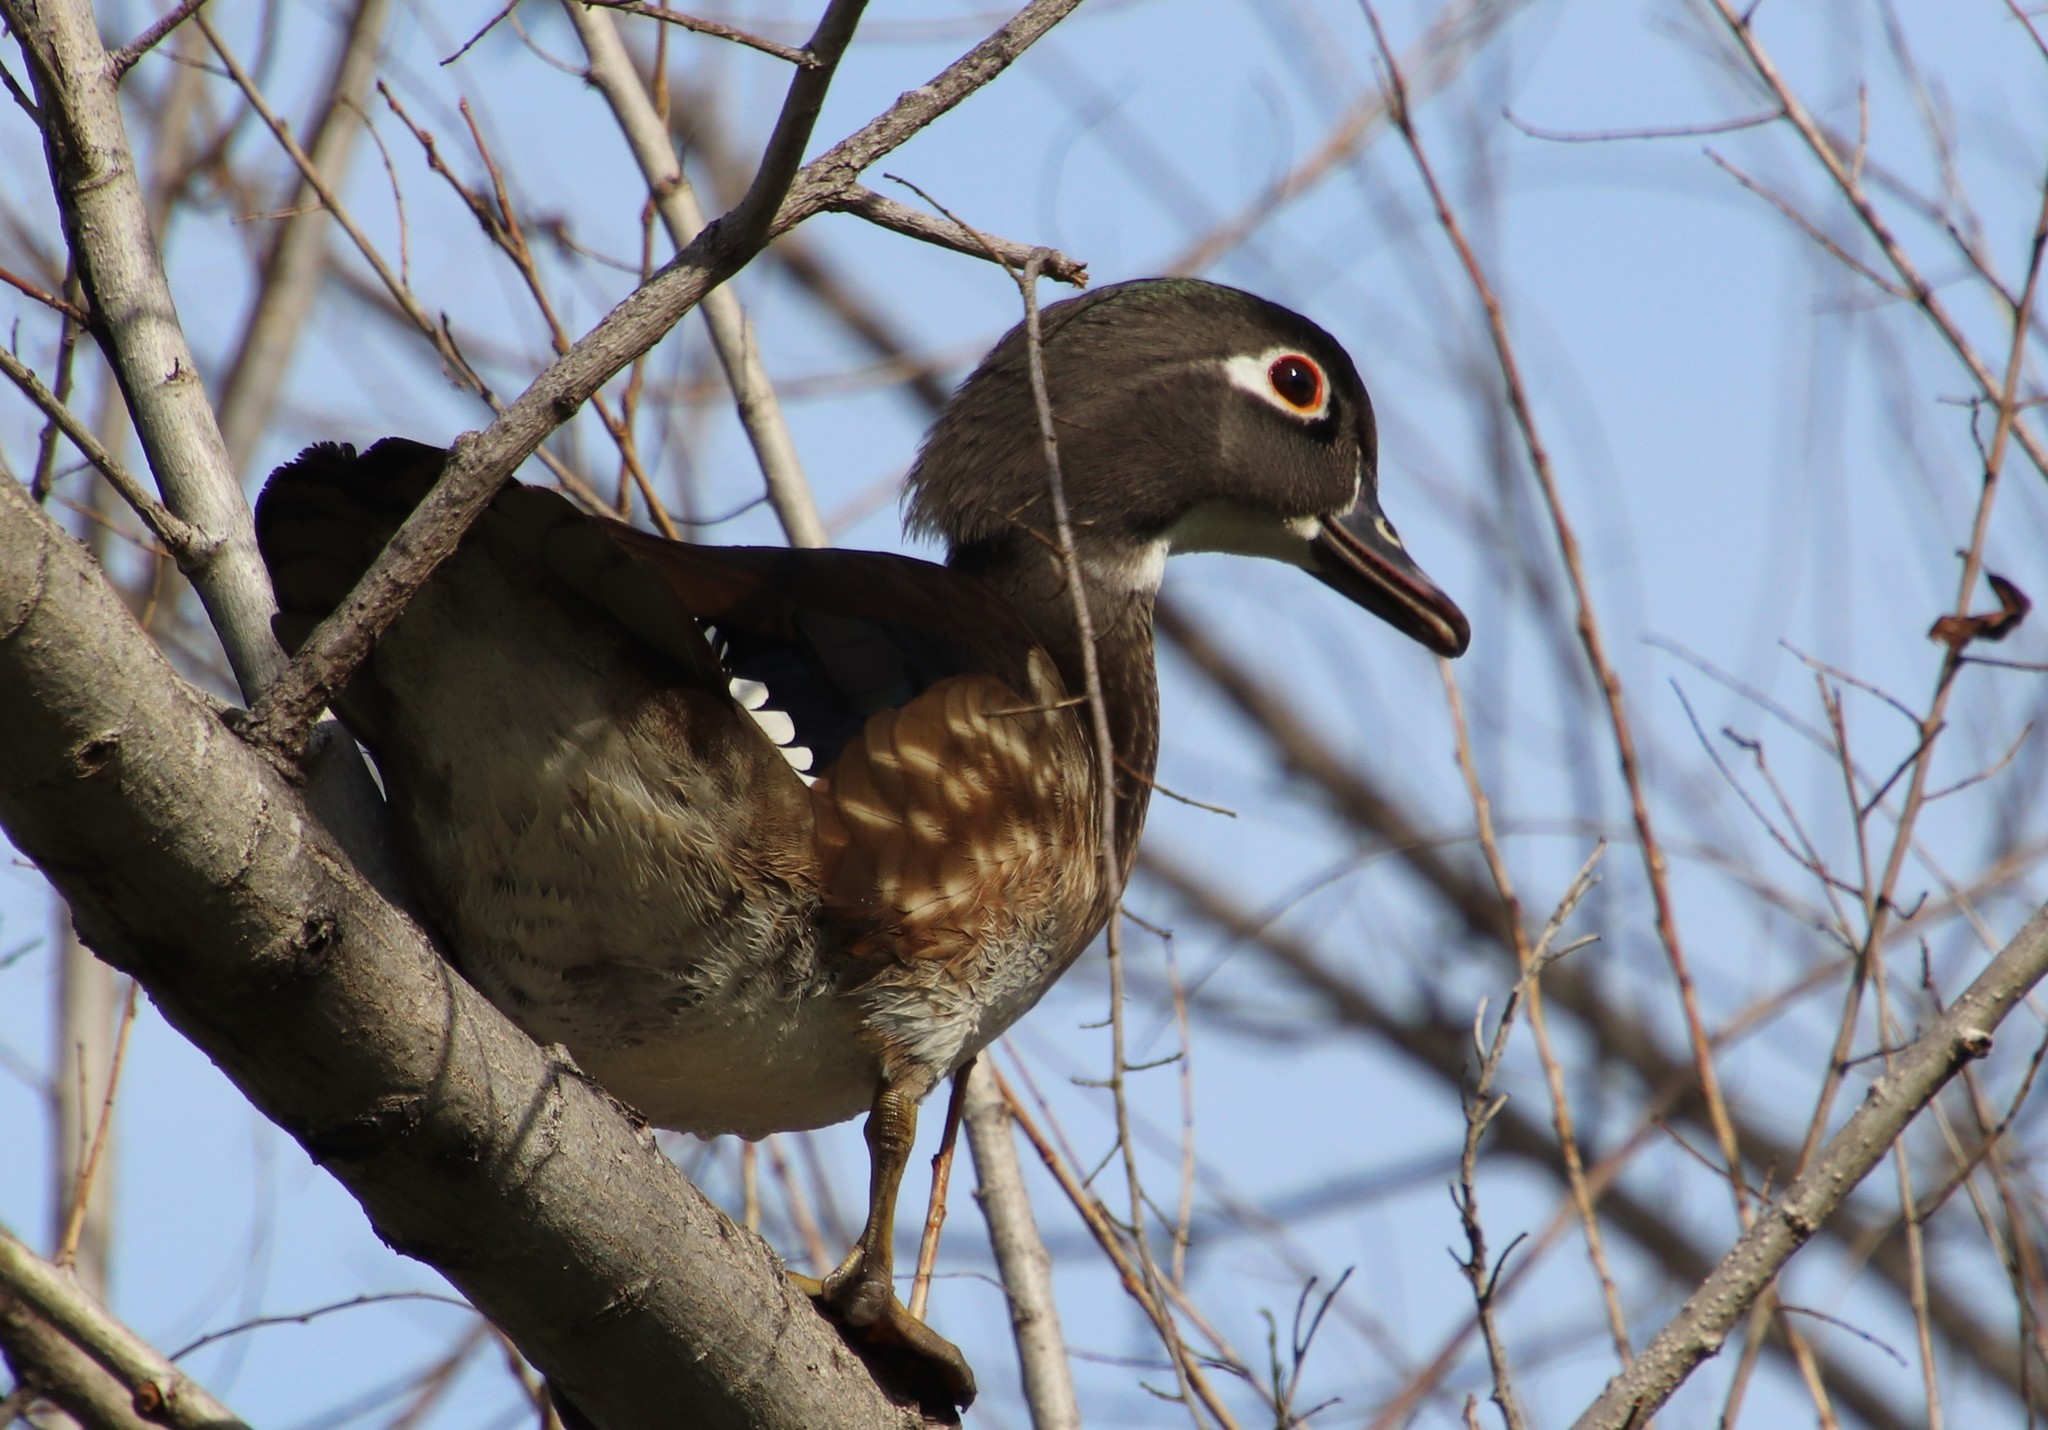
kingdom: Animalia
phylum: Chordata
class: Aves
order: Anseriformes
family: Anatidae
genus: Aix
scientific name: Aix sponsa
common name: Wood duck
